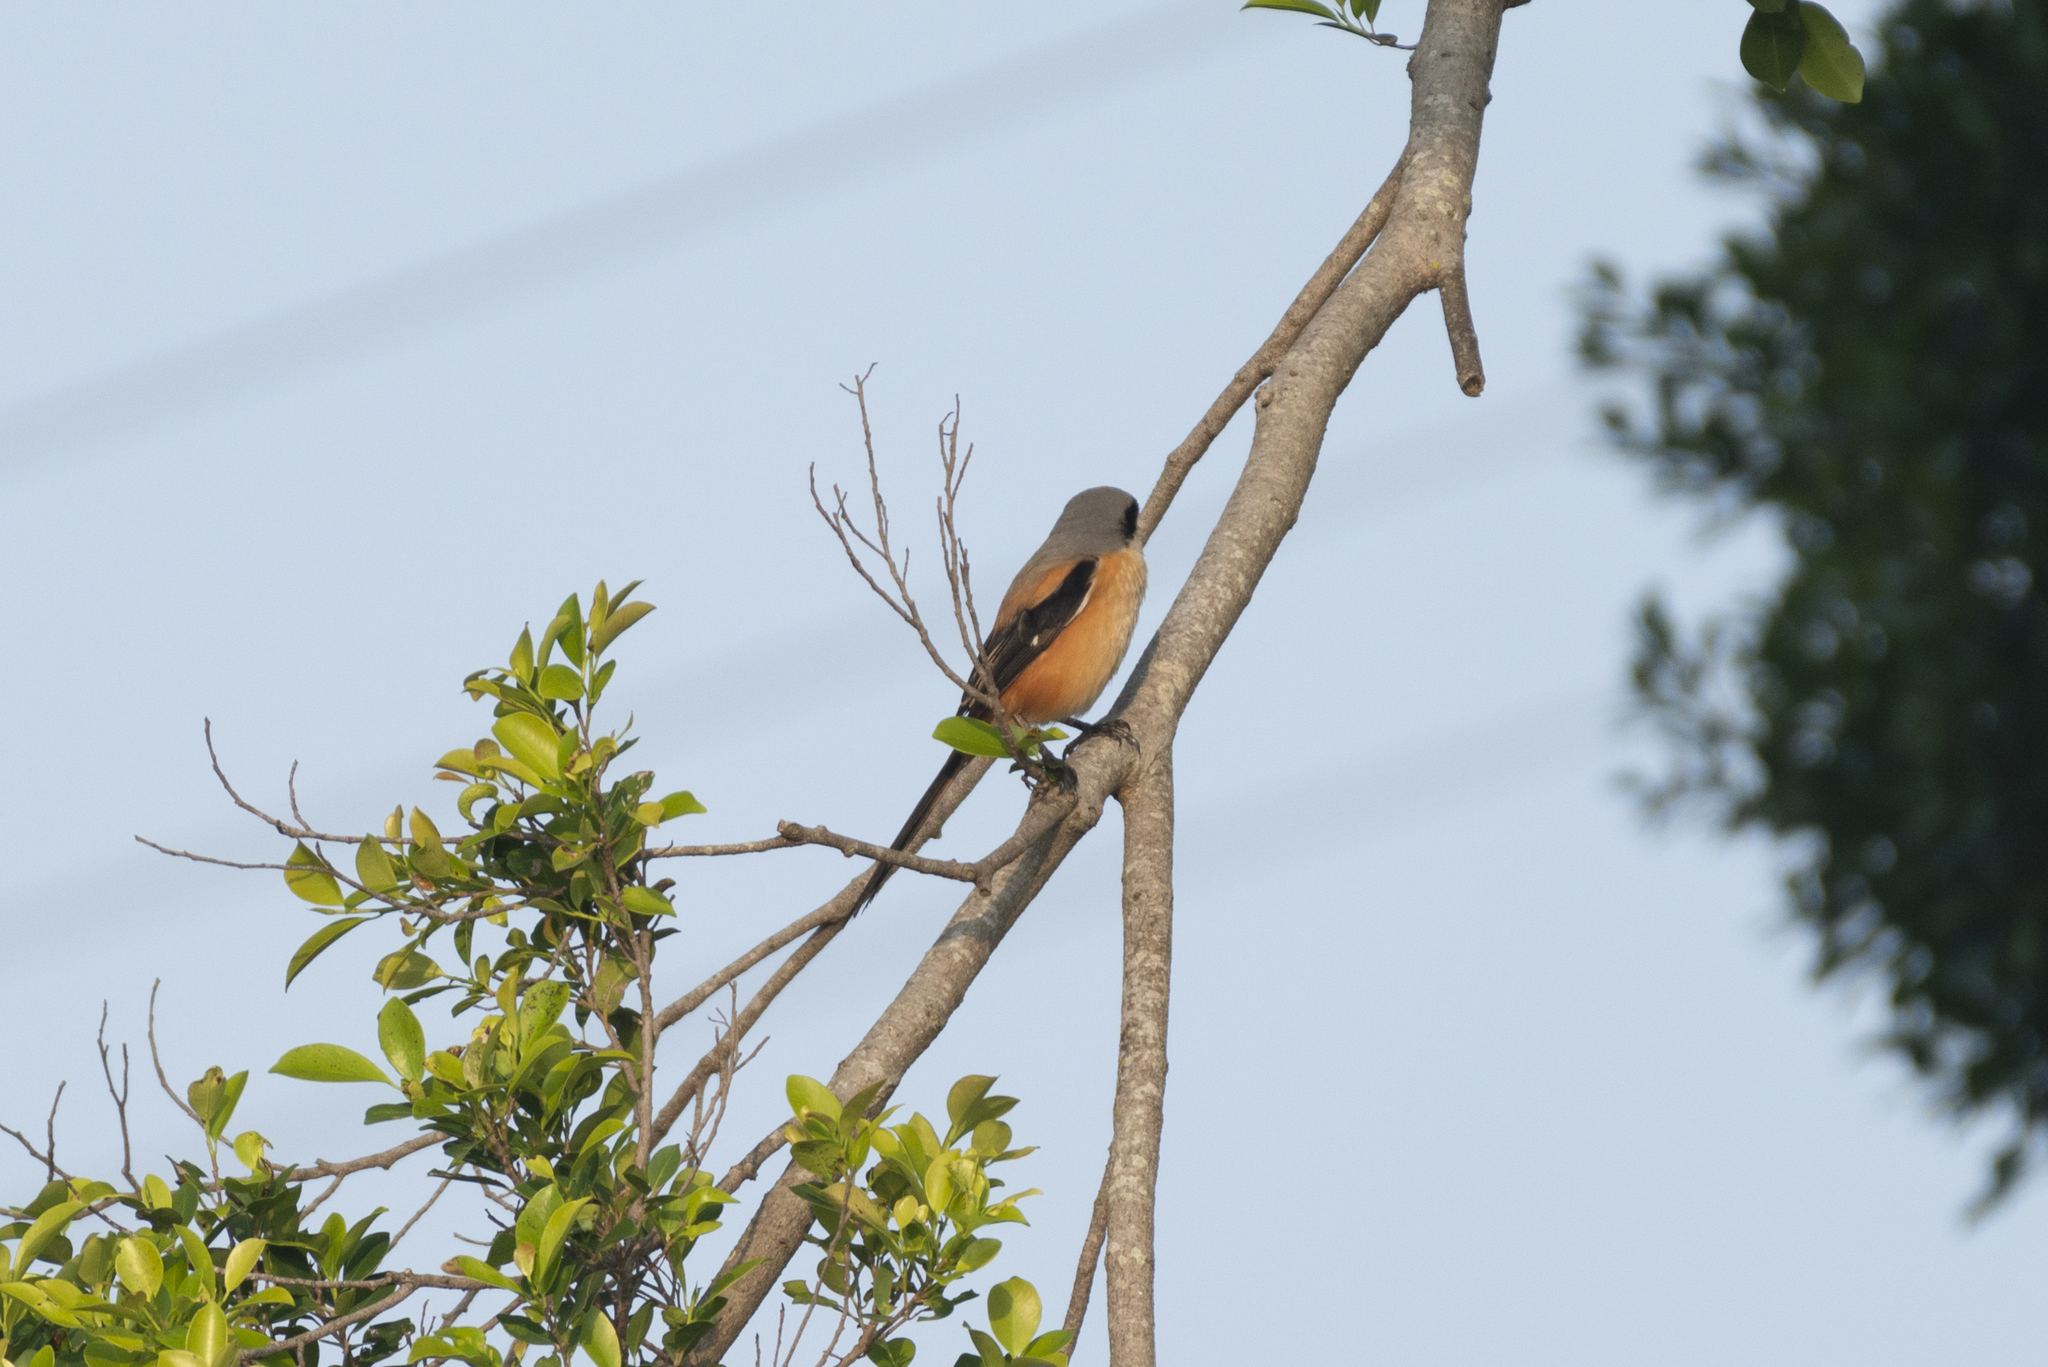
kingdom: Animalia
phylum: Chordata
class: Aves
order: Passeriformes
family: Laniidae
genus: Lanius
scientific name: Lanius schach
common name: Long-tailed shrike
